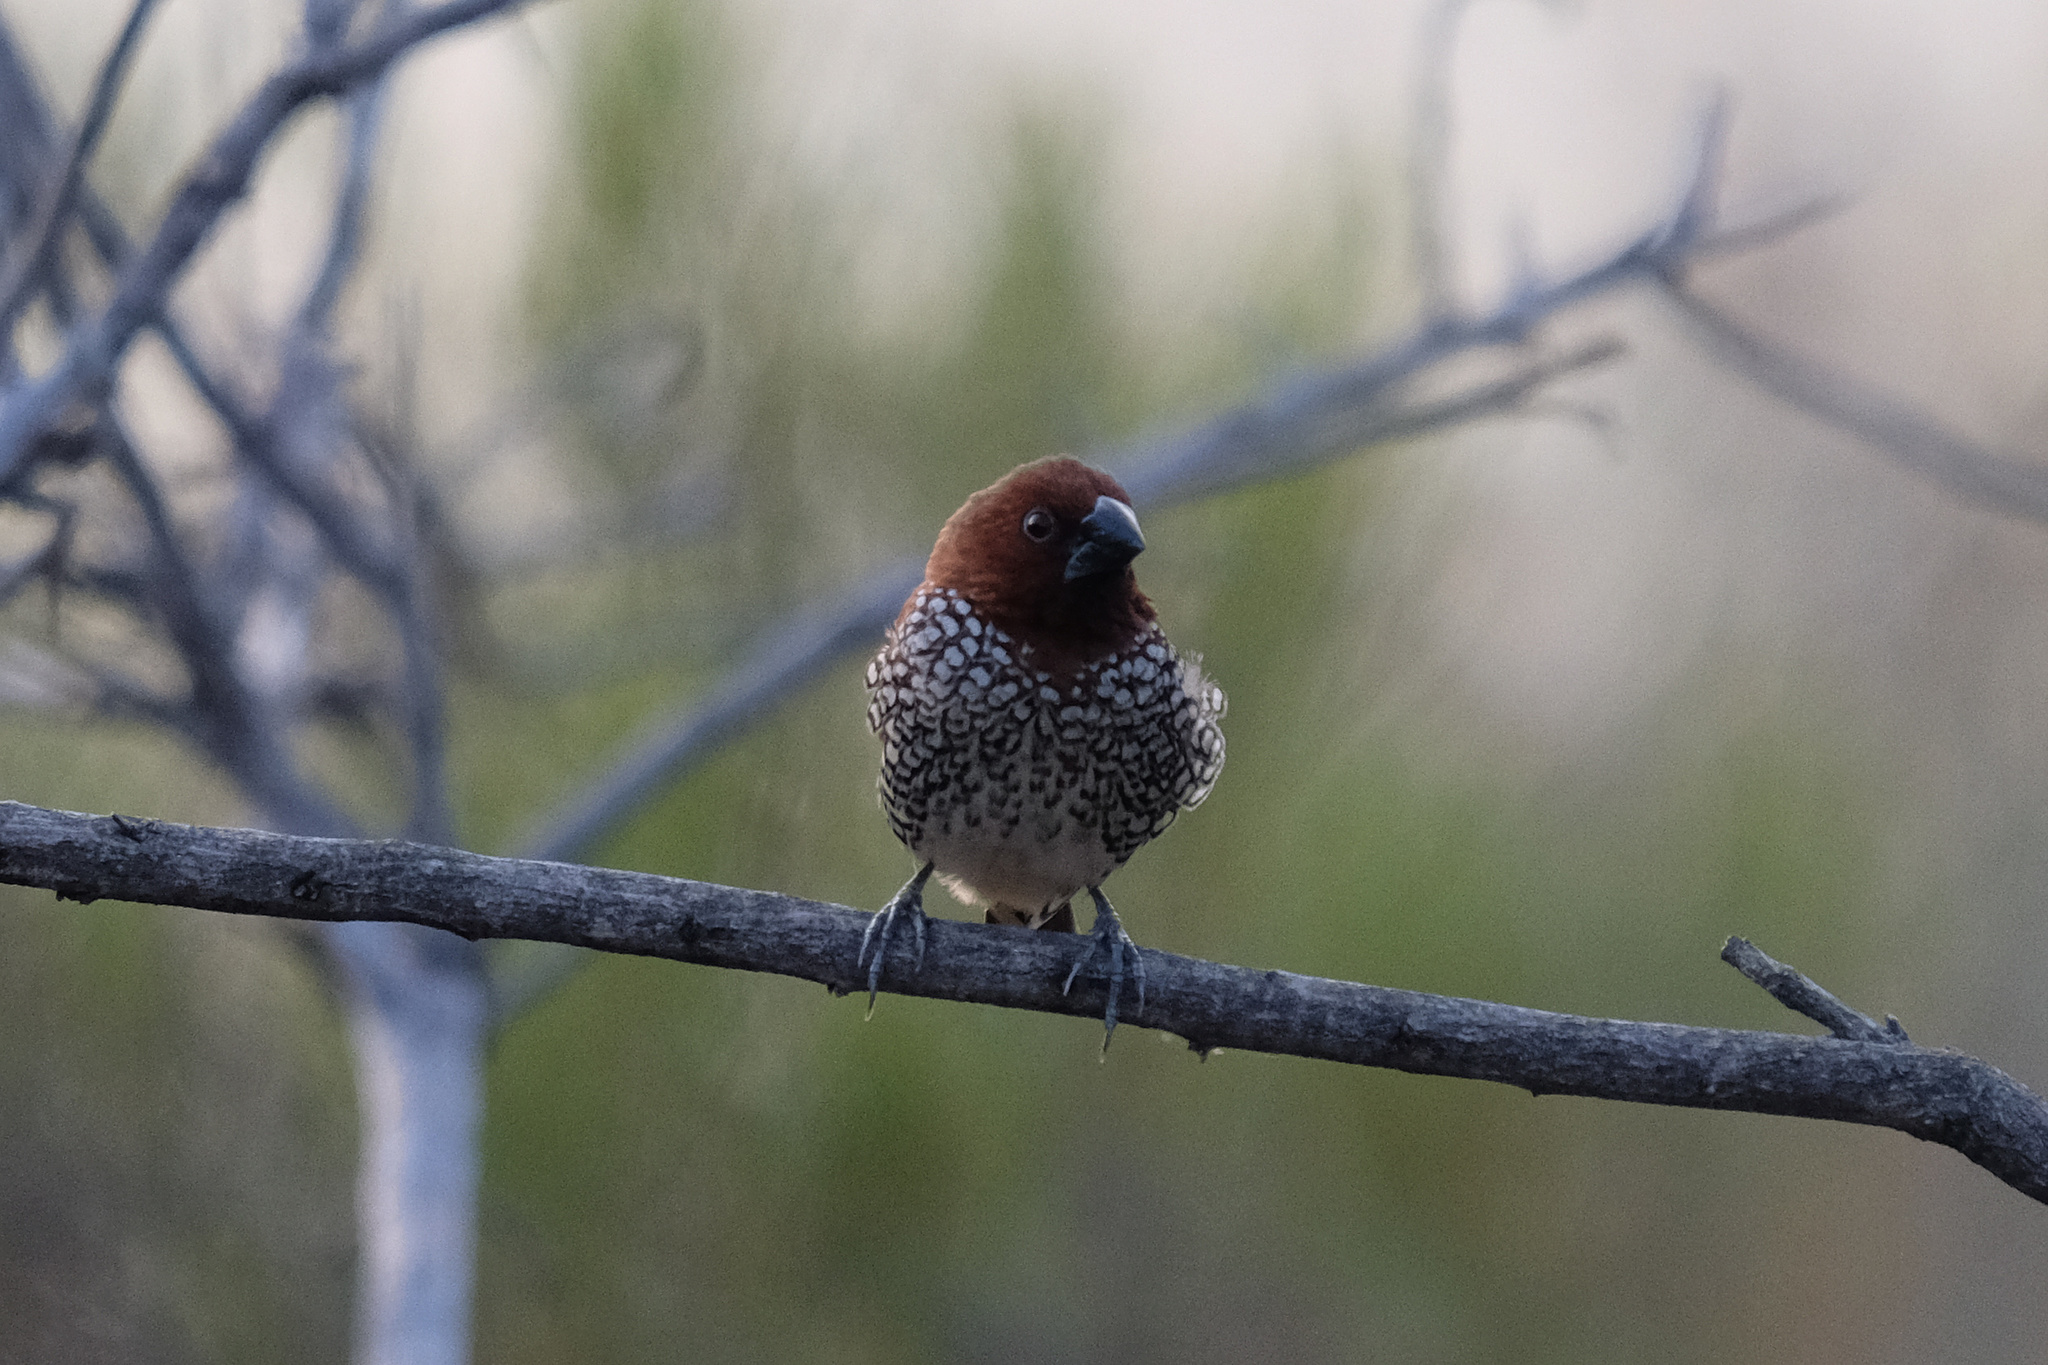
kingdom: Animalia
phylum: Chordata
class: Aves
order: Passeriformes
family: Estrildidae
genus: Lonchura
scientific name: Lonchura punctulata
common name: Scaly-breasted munia
